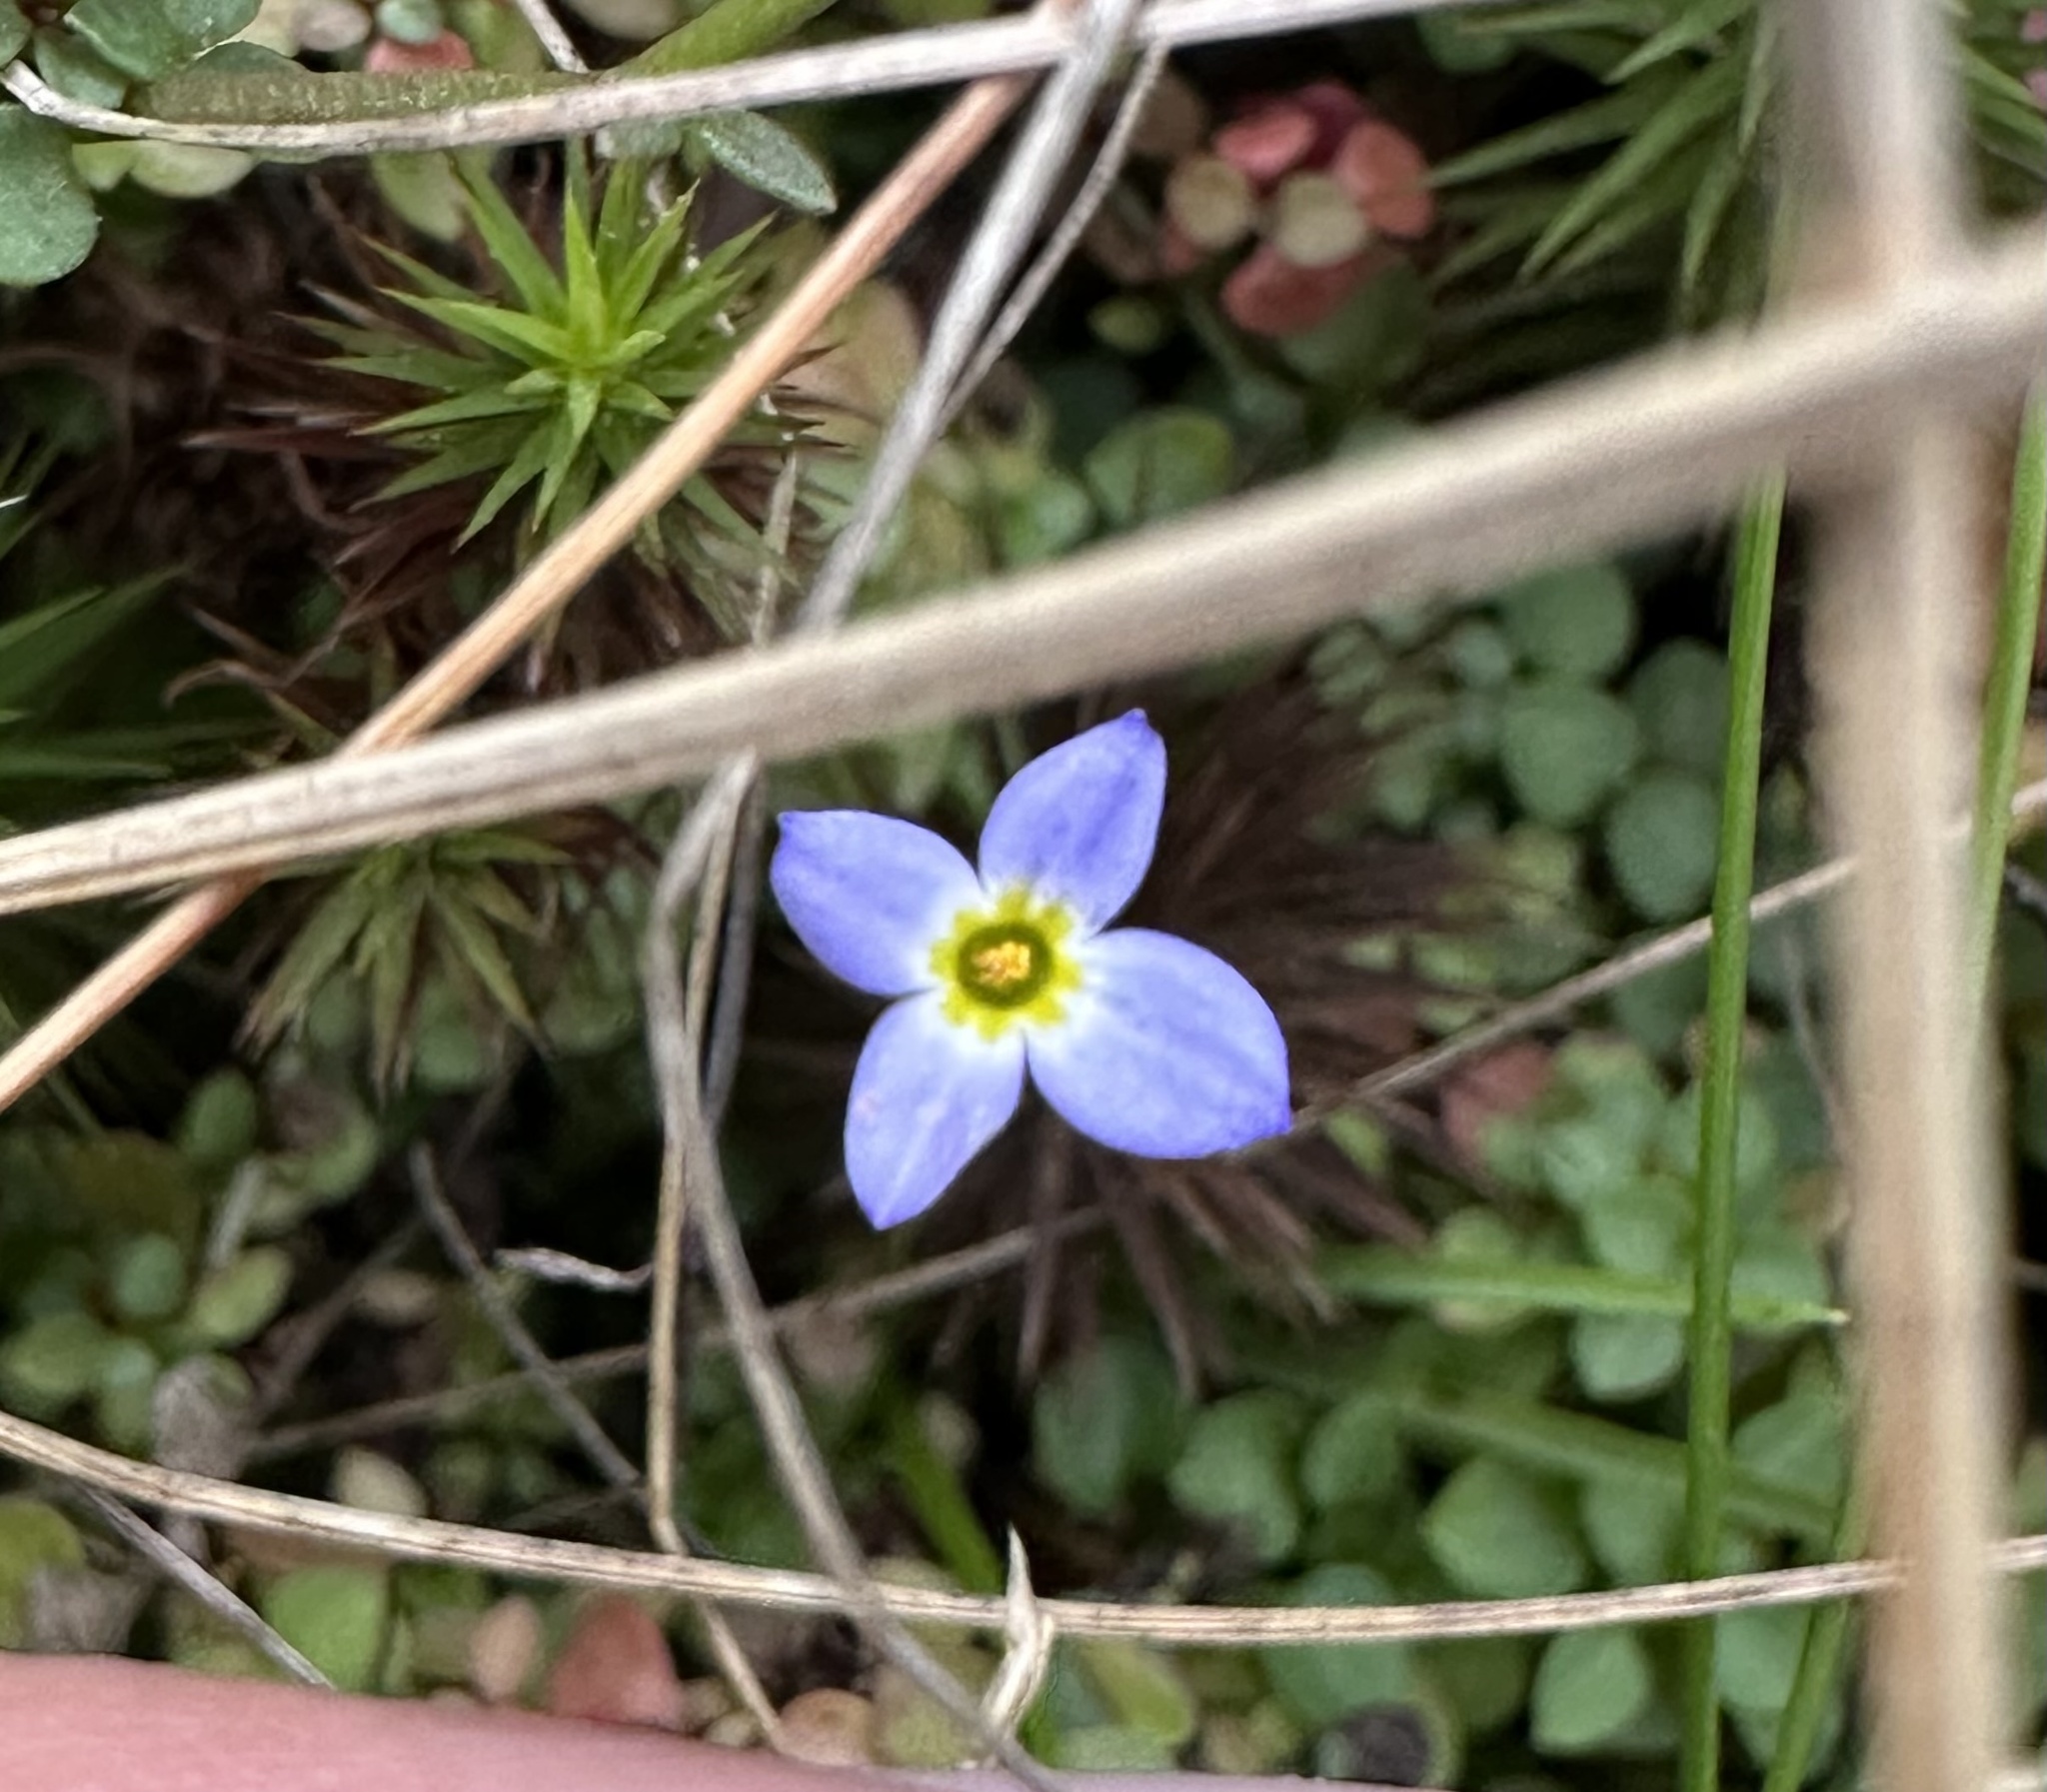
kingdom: Plantae
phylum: Tracheophyta
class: Magnoliopsida
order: Gentianales
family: Rubiaceae
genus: Houstonia
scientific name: Houstonia serpyllifolia
